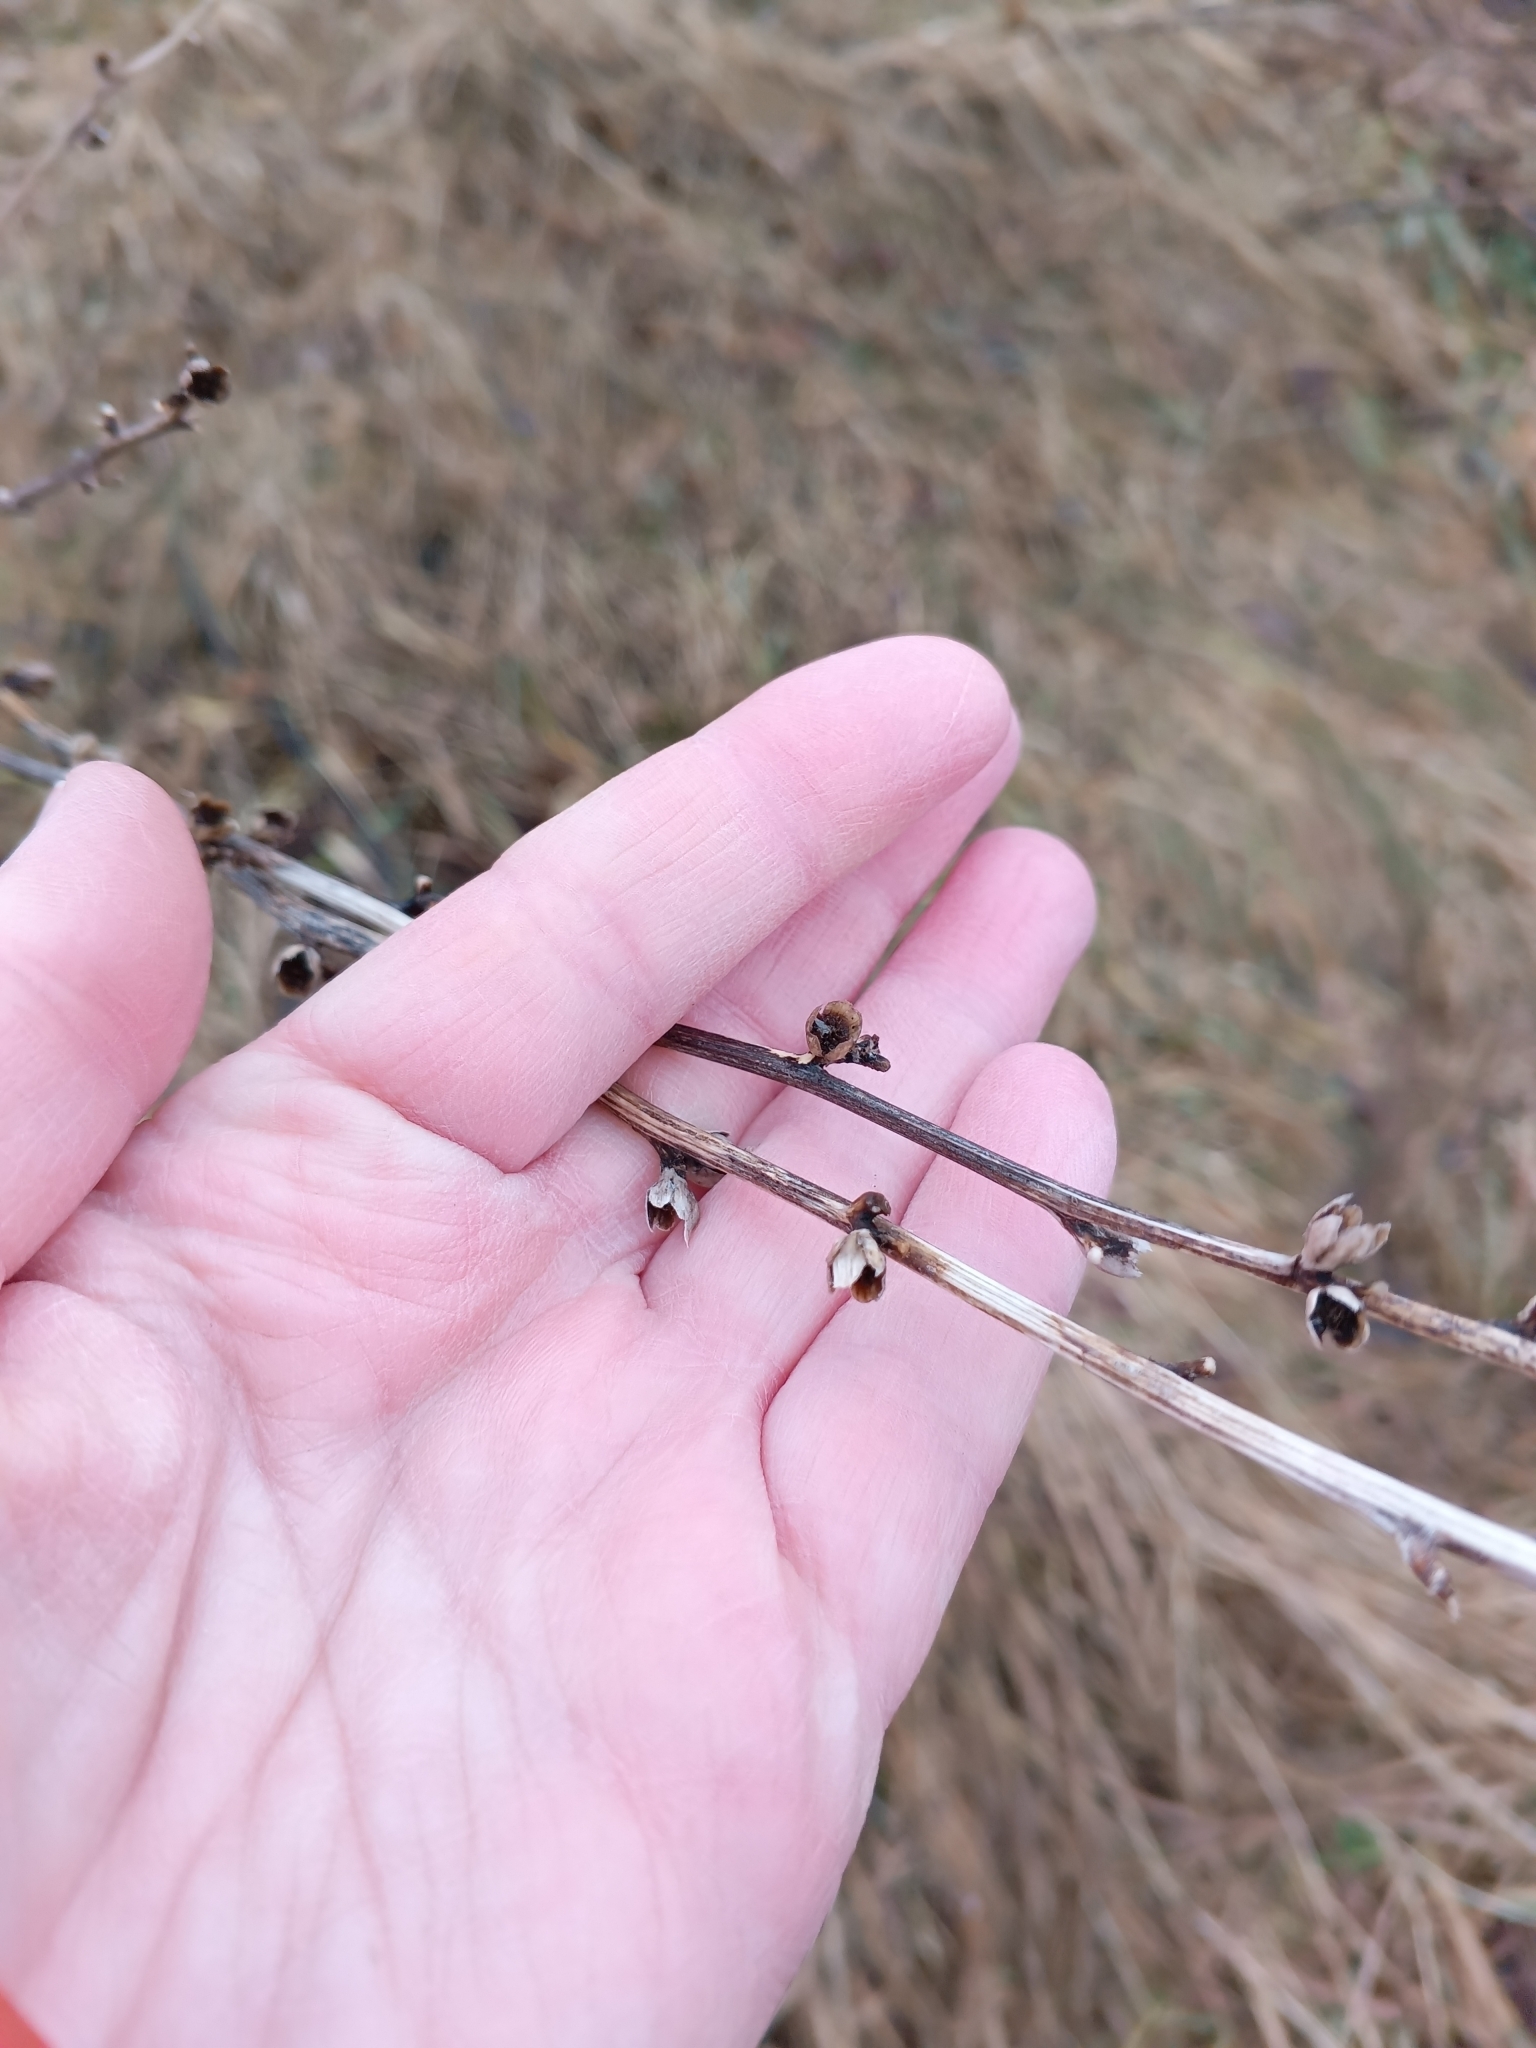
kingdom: Plantae
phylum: Tracheophyta
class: Magnoliopsida
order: Asterales
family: Asteraceae
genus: Cichorium
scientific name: Cichorium intybus
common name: Chicory
